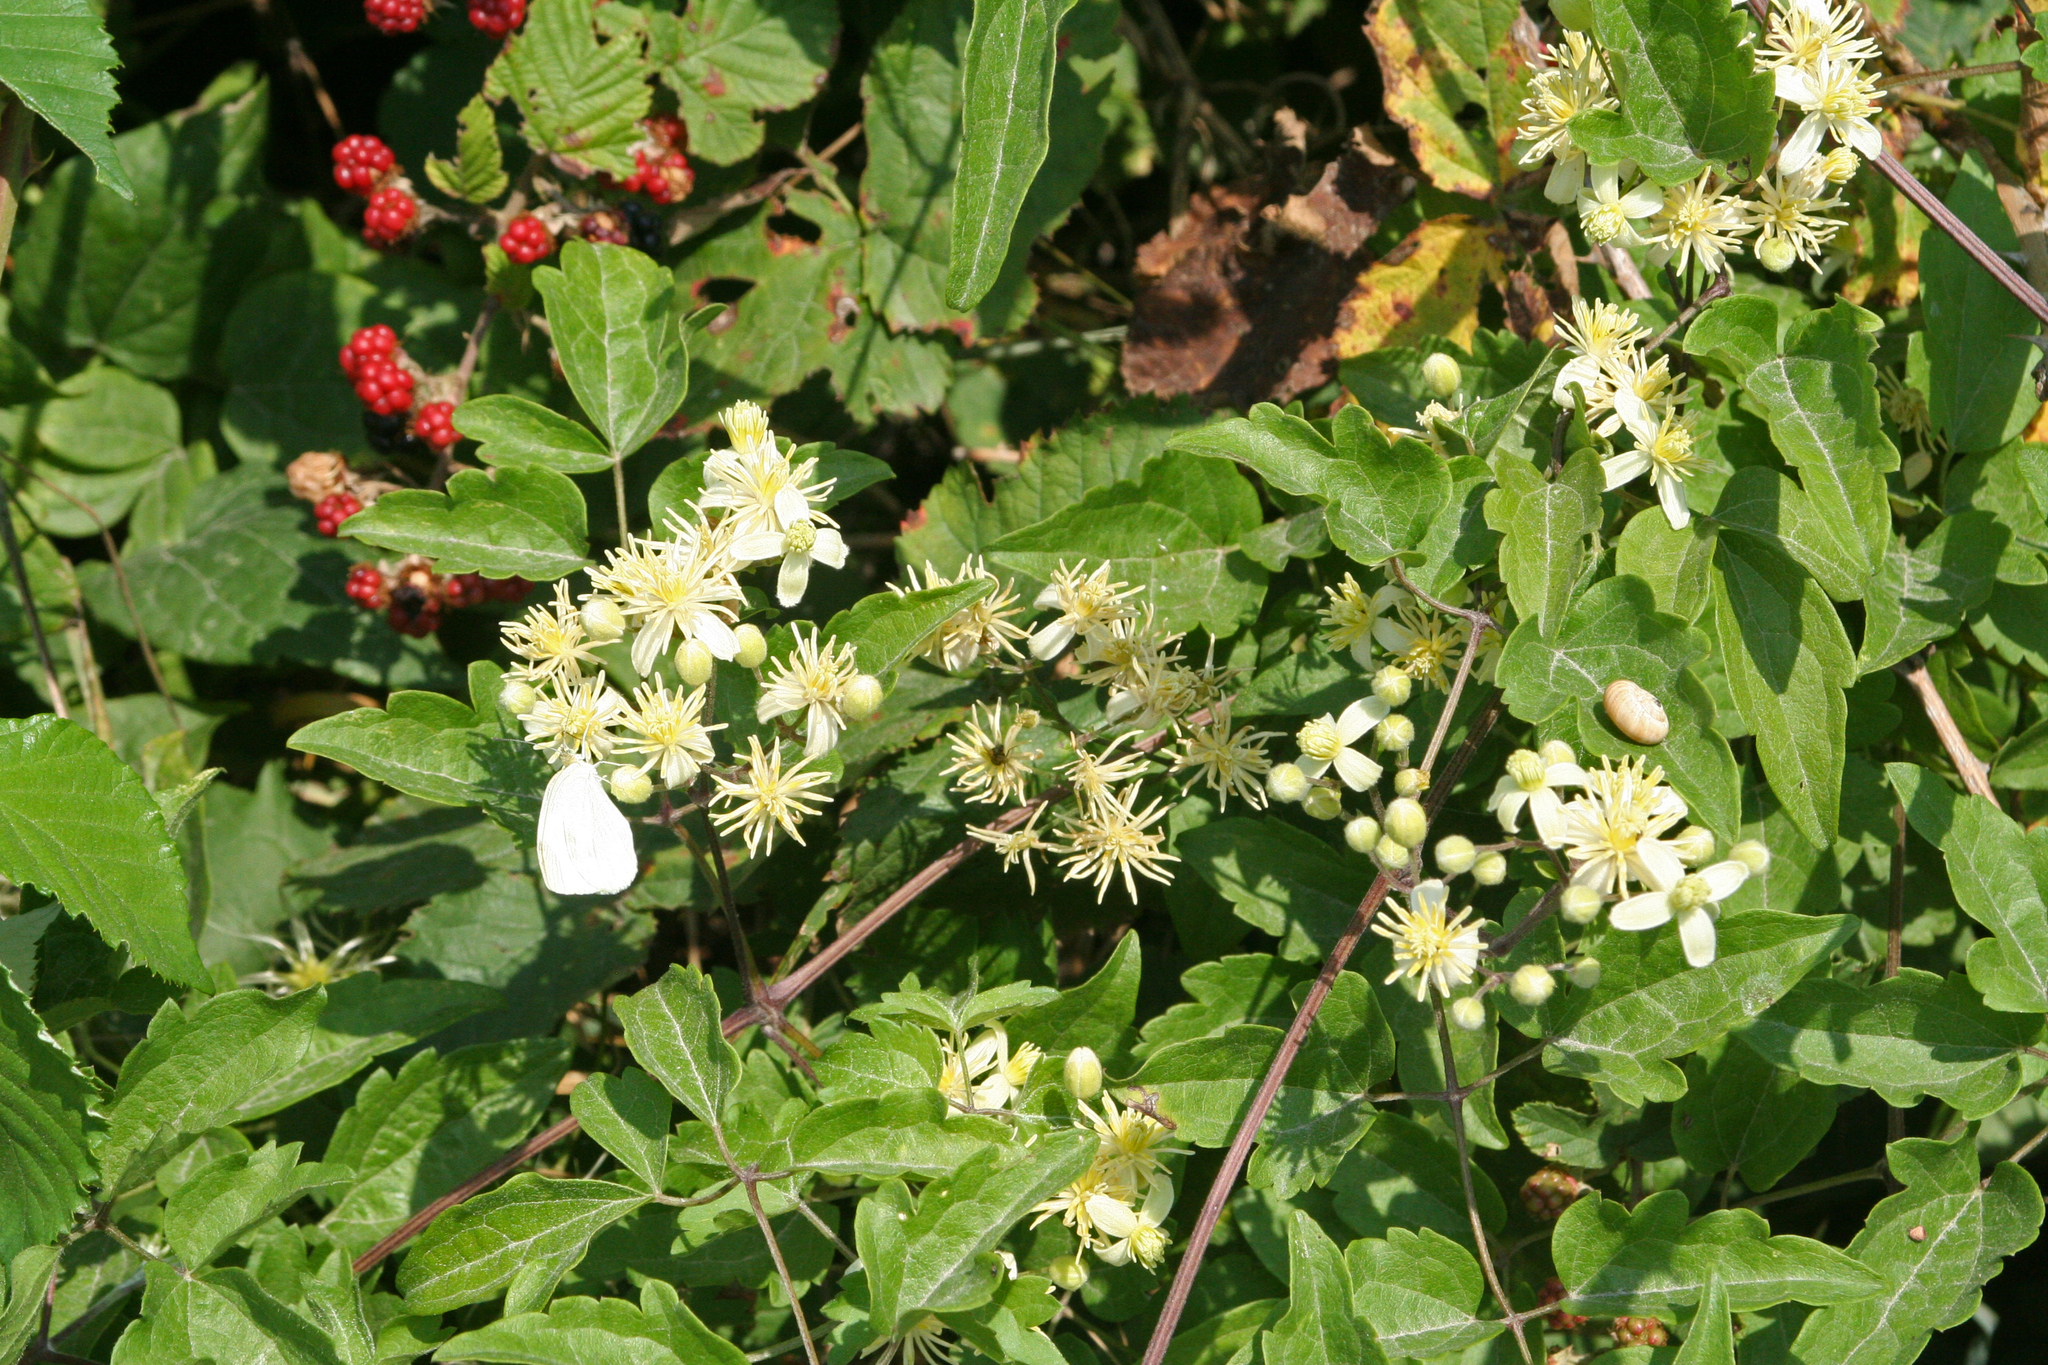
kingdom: Plantae
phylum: Tracheophyta
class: Magnoliopsida
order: Ranunculales
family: Ranunculaceae
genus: Clematis
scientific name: Clematis vitalba
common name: Evergreen clematis
